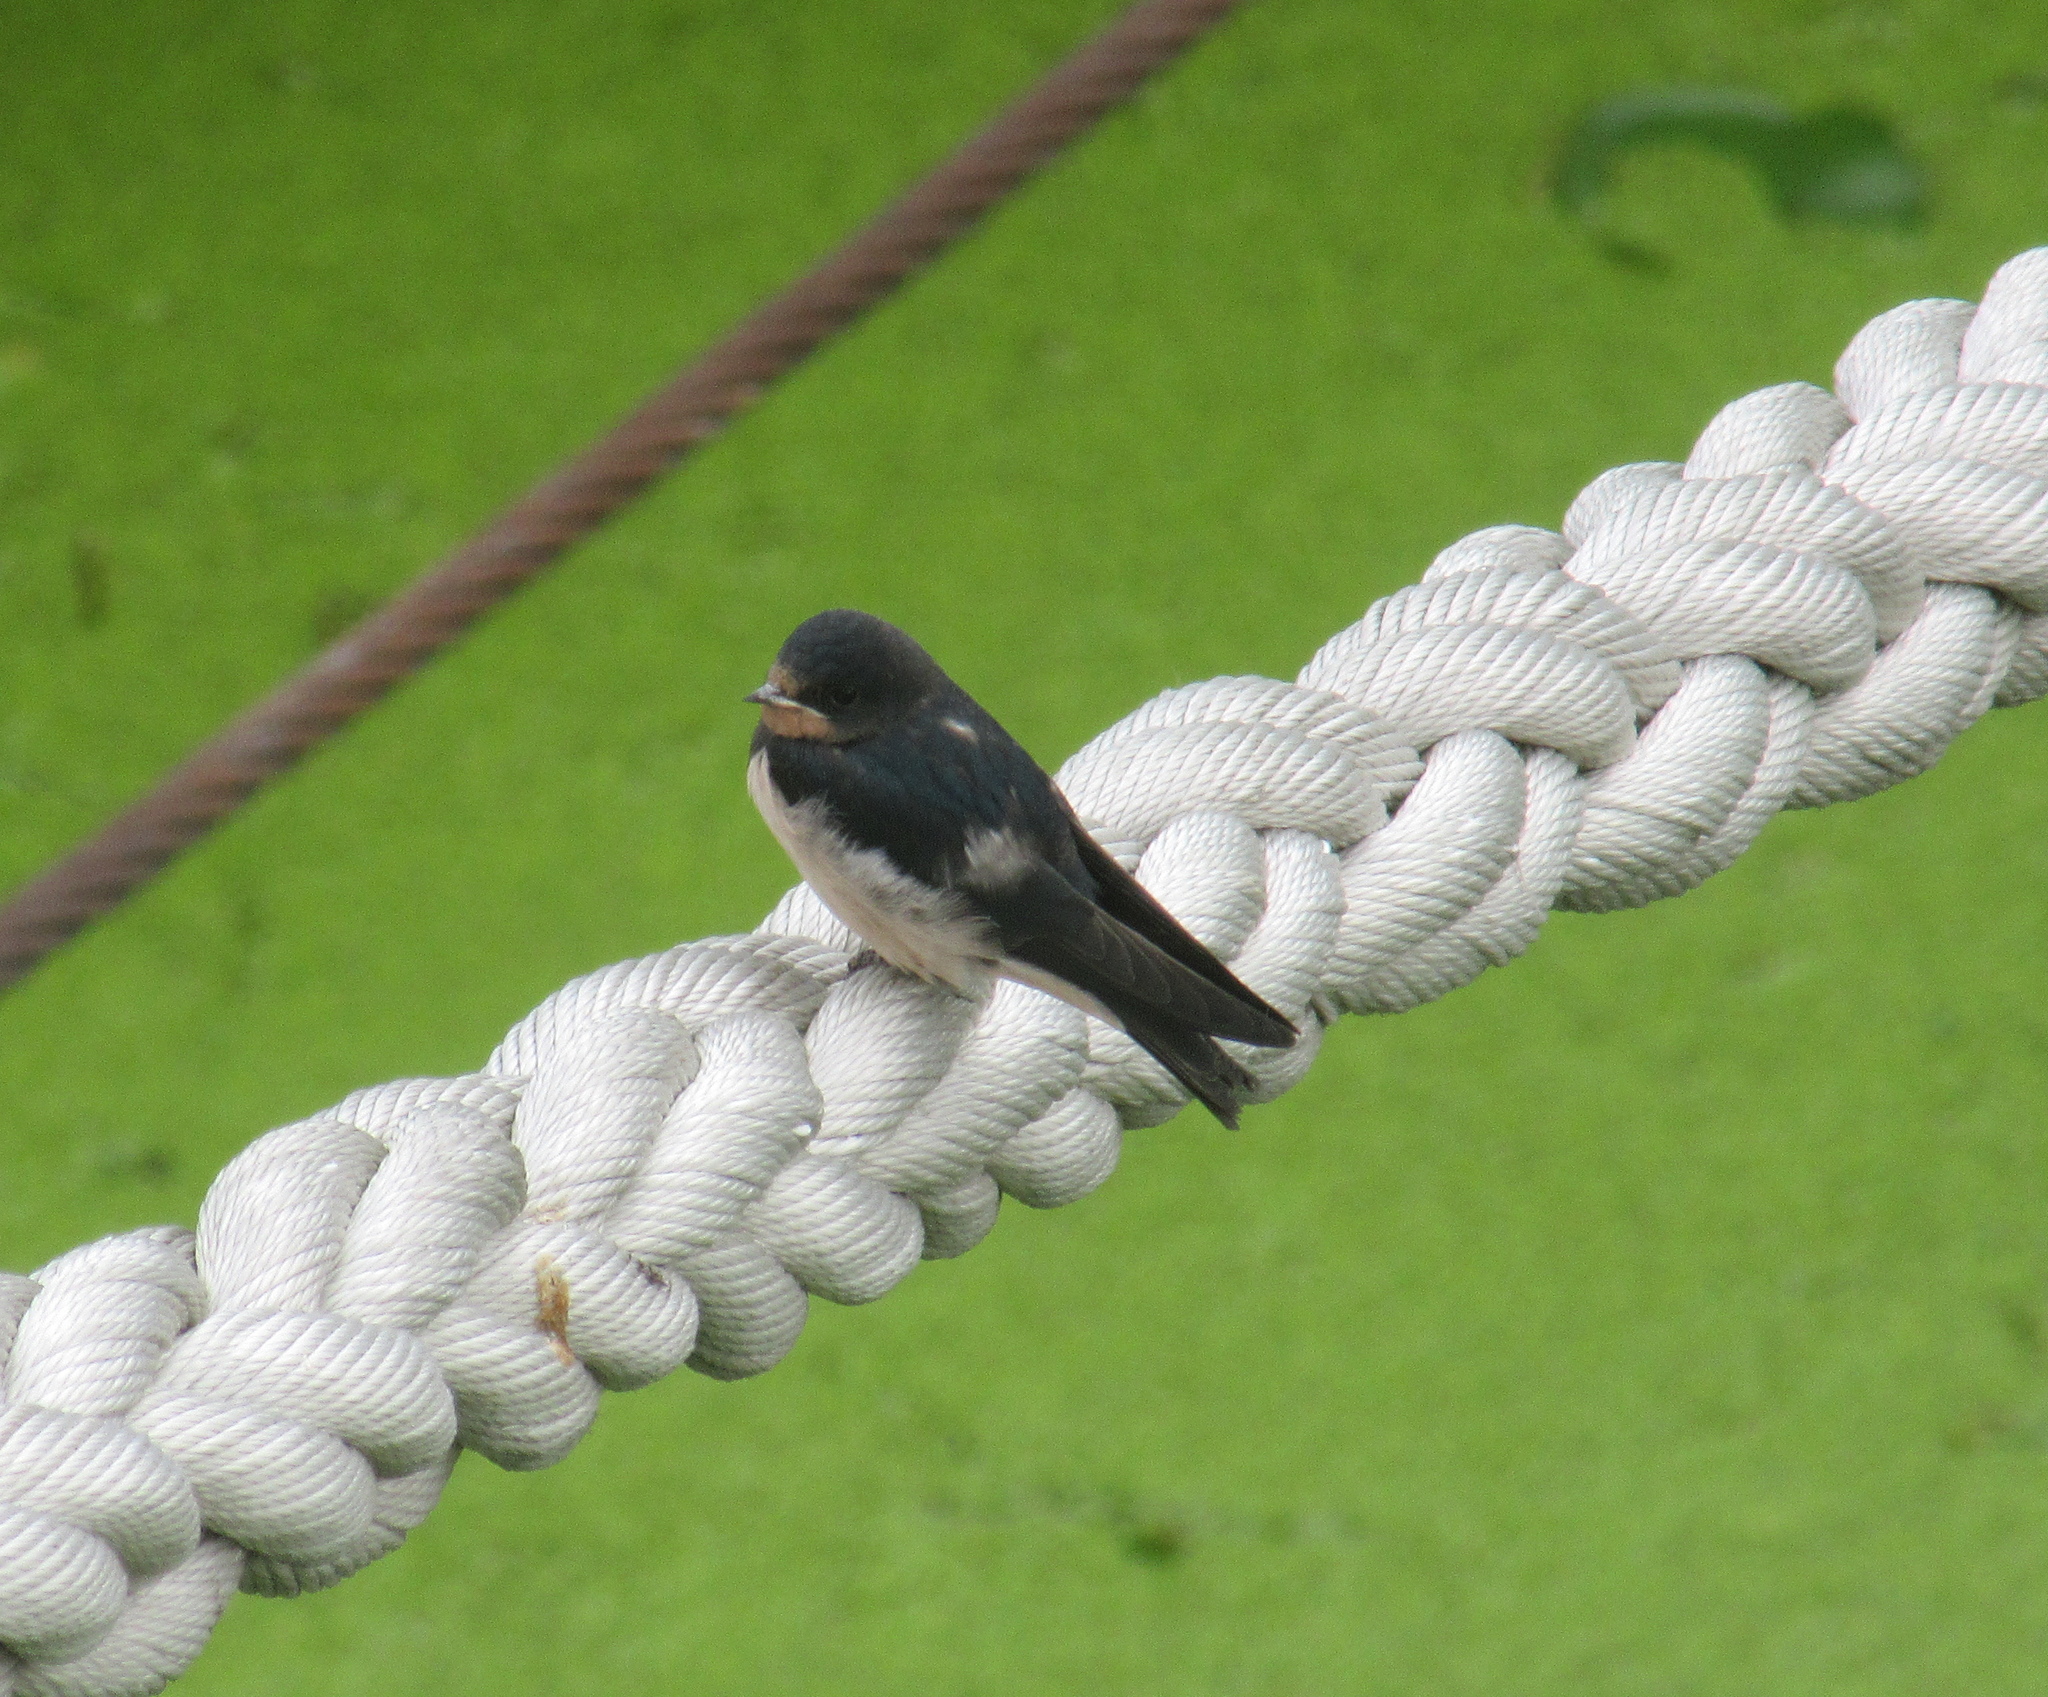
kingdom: Animalia
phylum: Chordata
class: Aves
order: Passeriformes
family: Hirundinidae
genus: Hirundo
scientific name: Hirundo rustica
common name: Barn swallow
